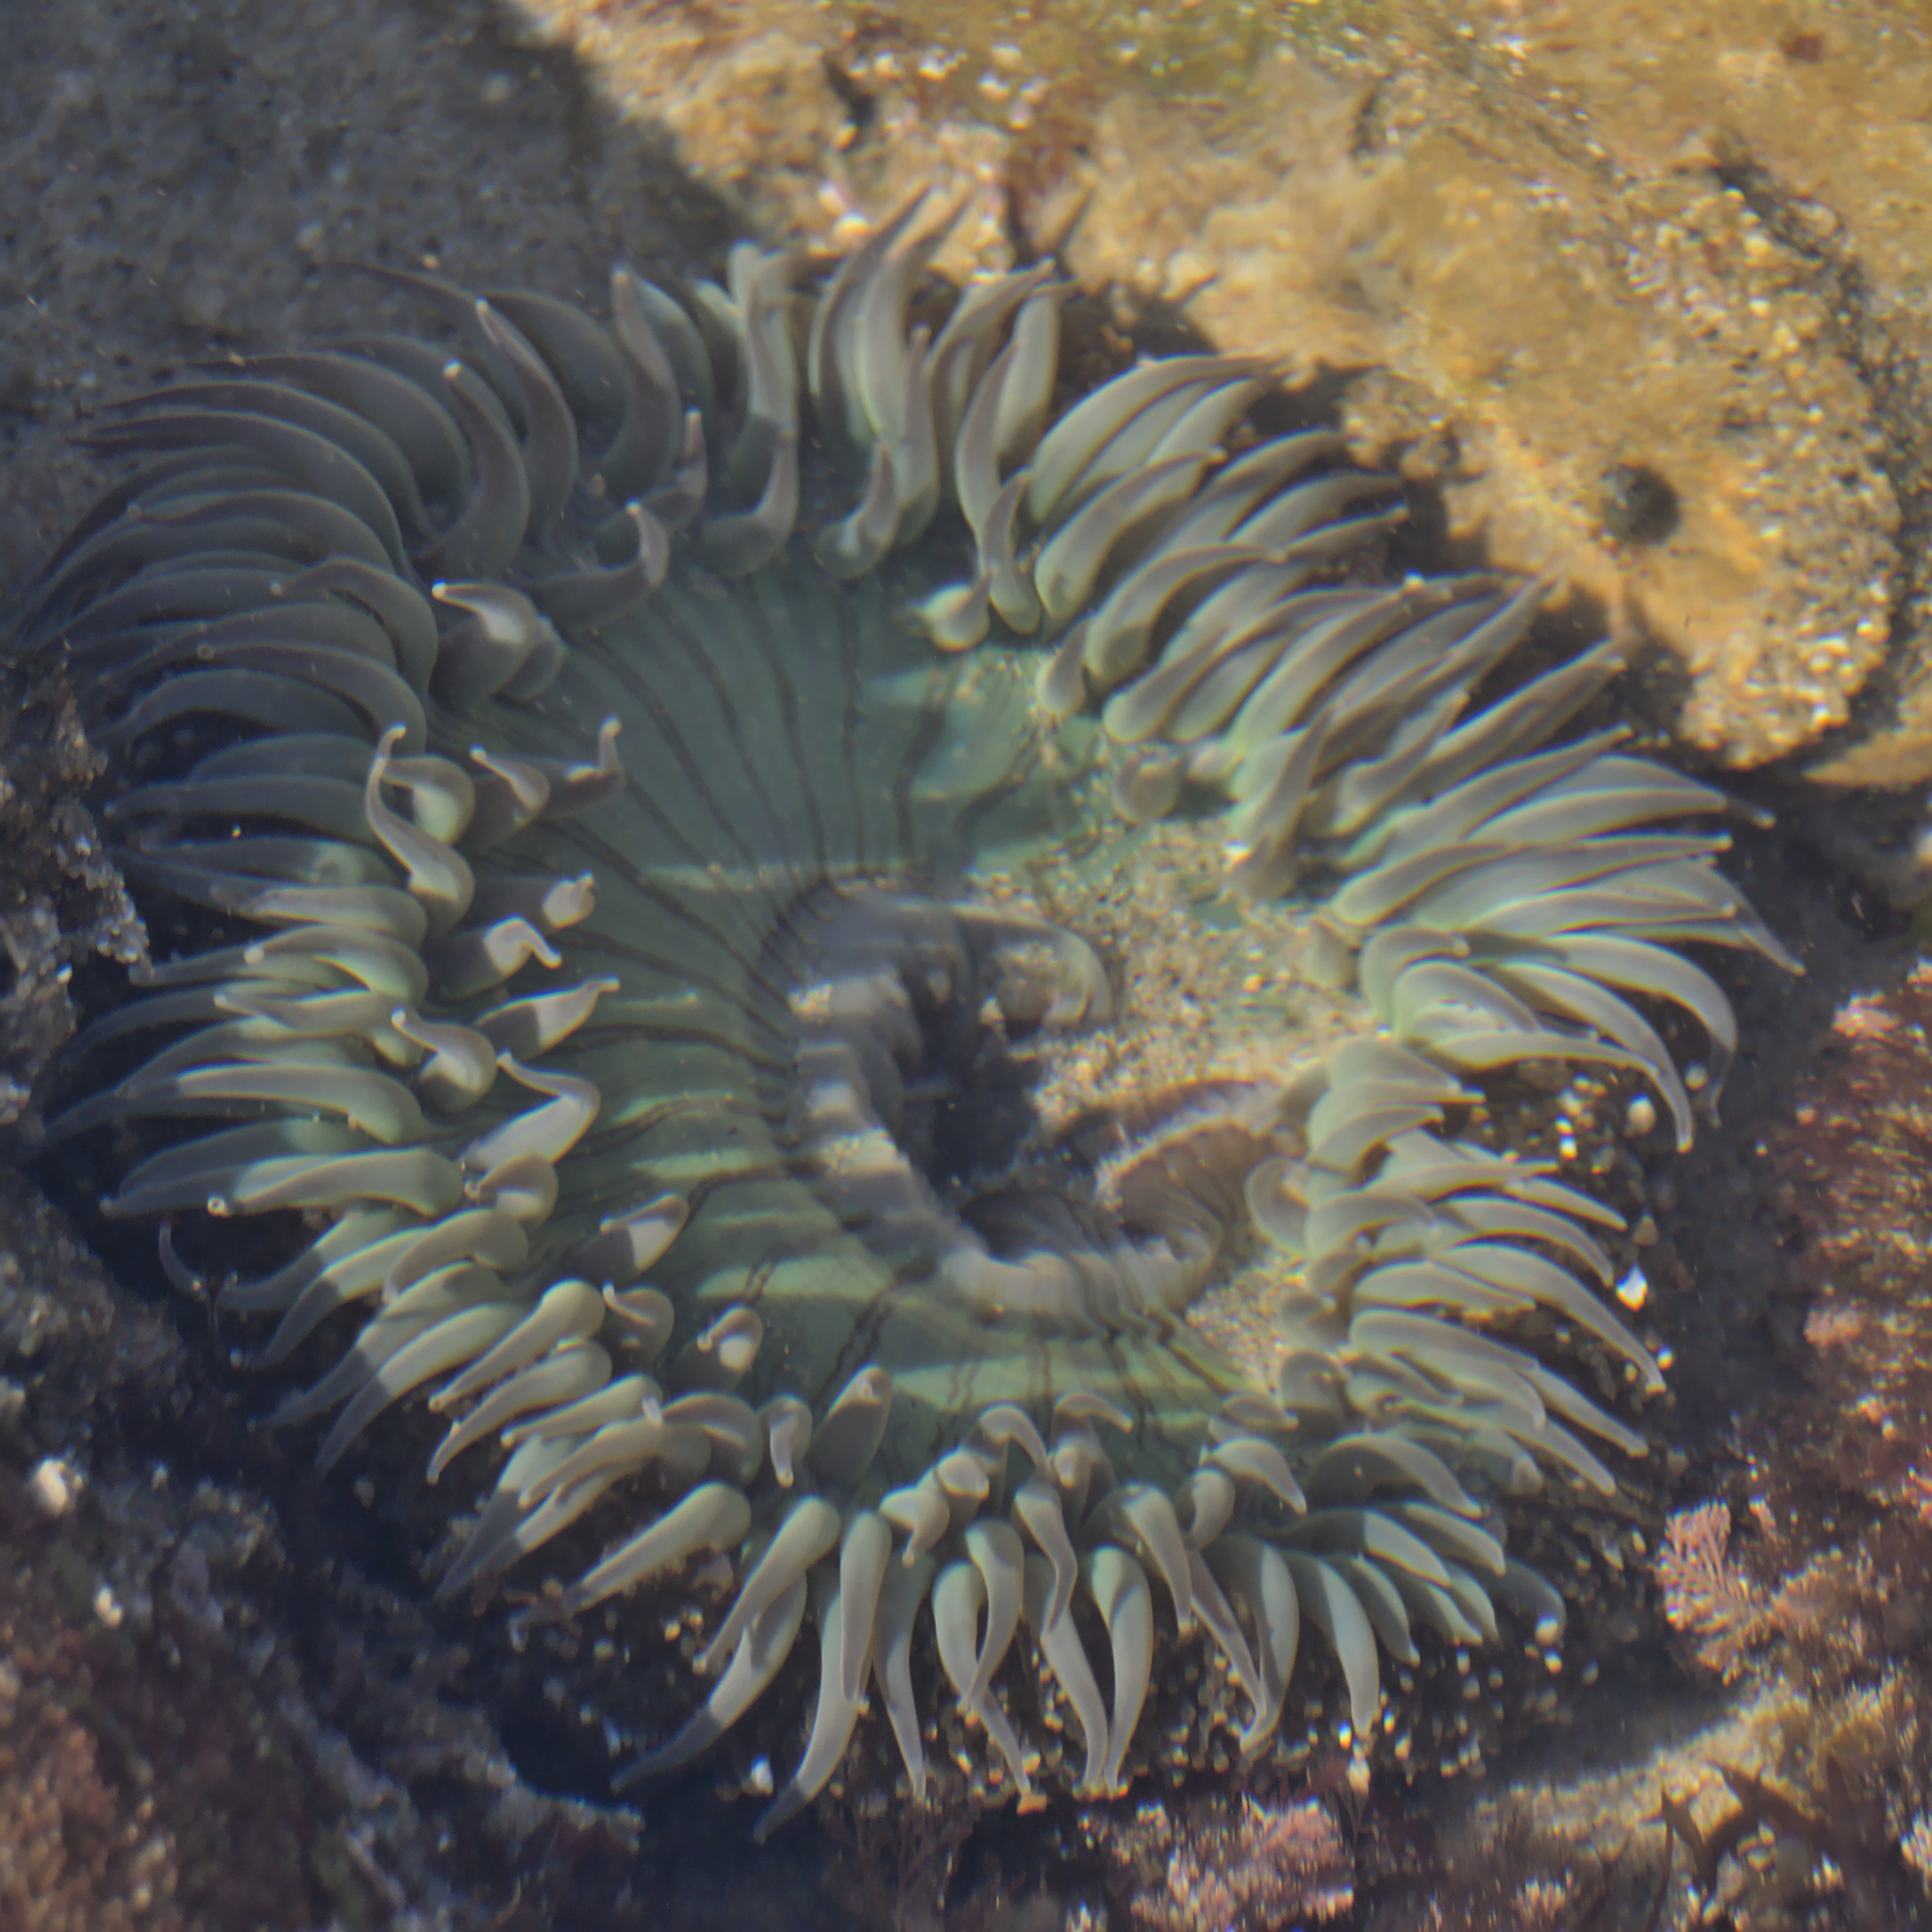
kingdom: Animalia
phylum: Cnidaria
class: Anthozoa
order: Actiniaria
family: Actiniidae
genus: Anthopleura
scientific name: Anthopleura sola
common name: Sun anemone
